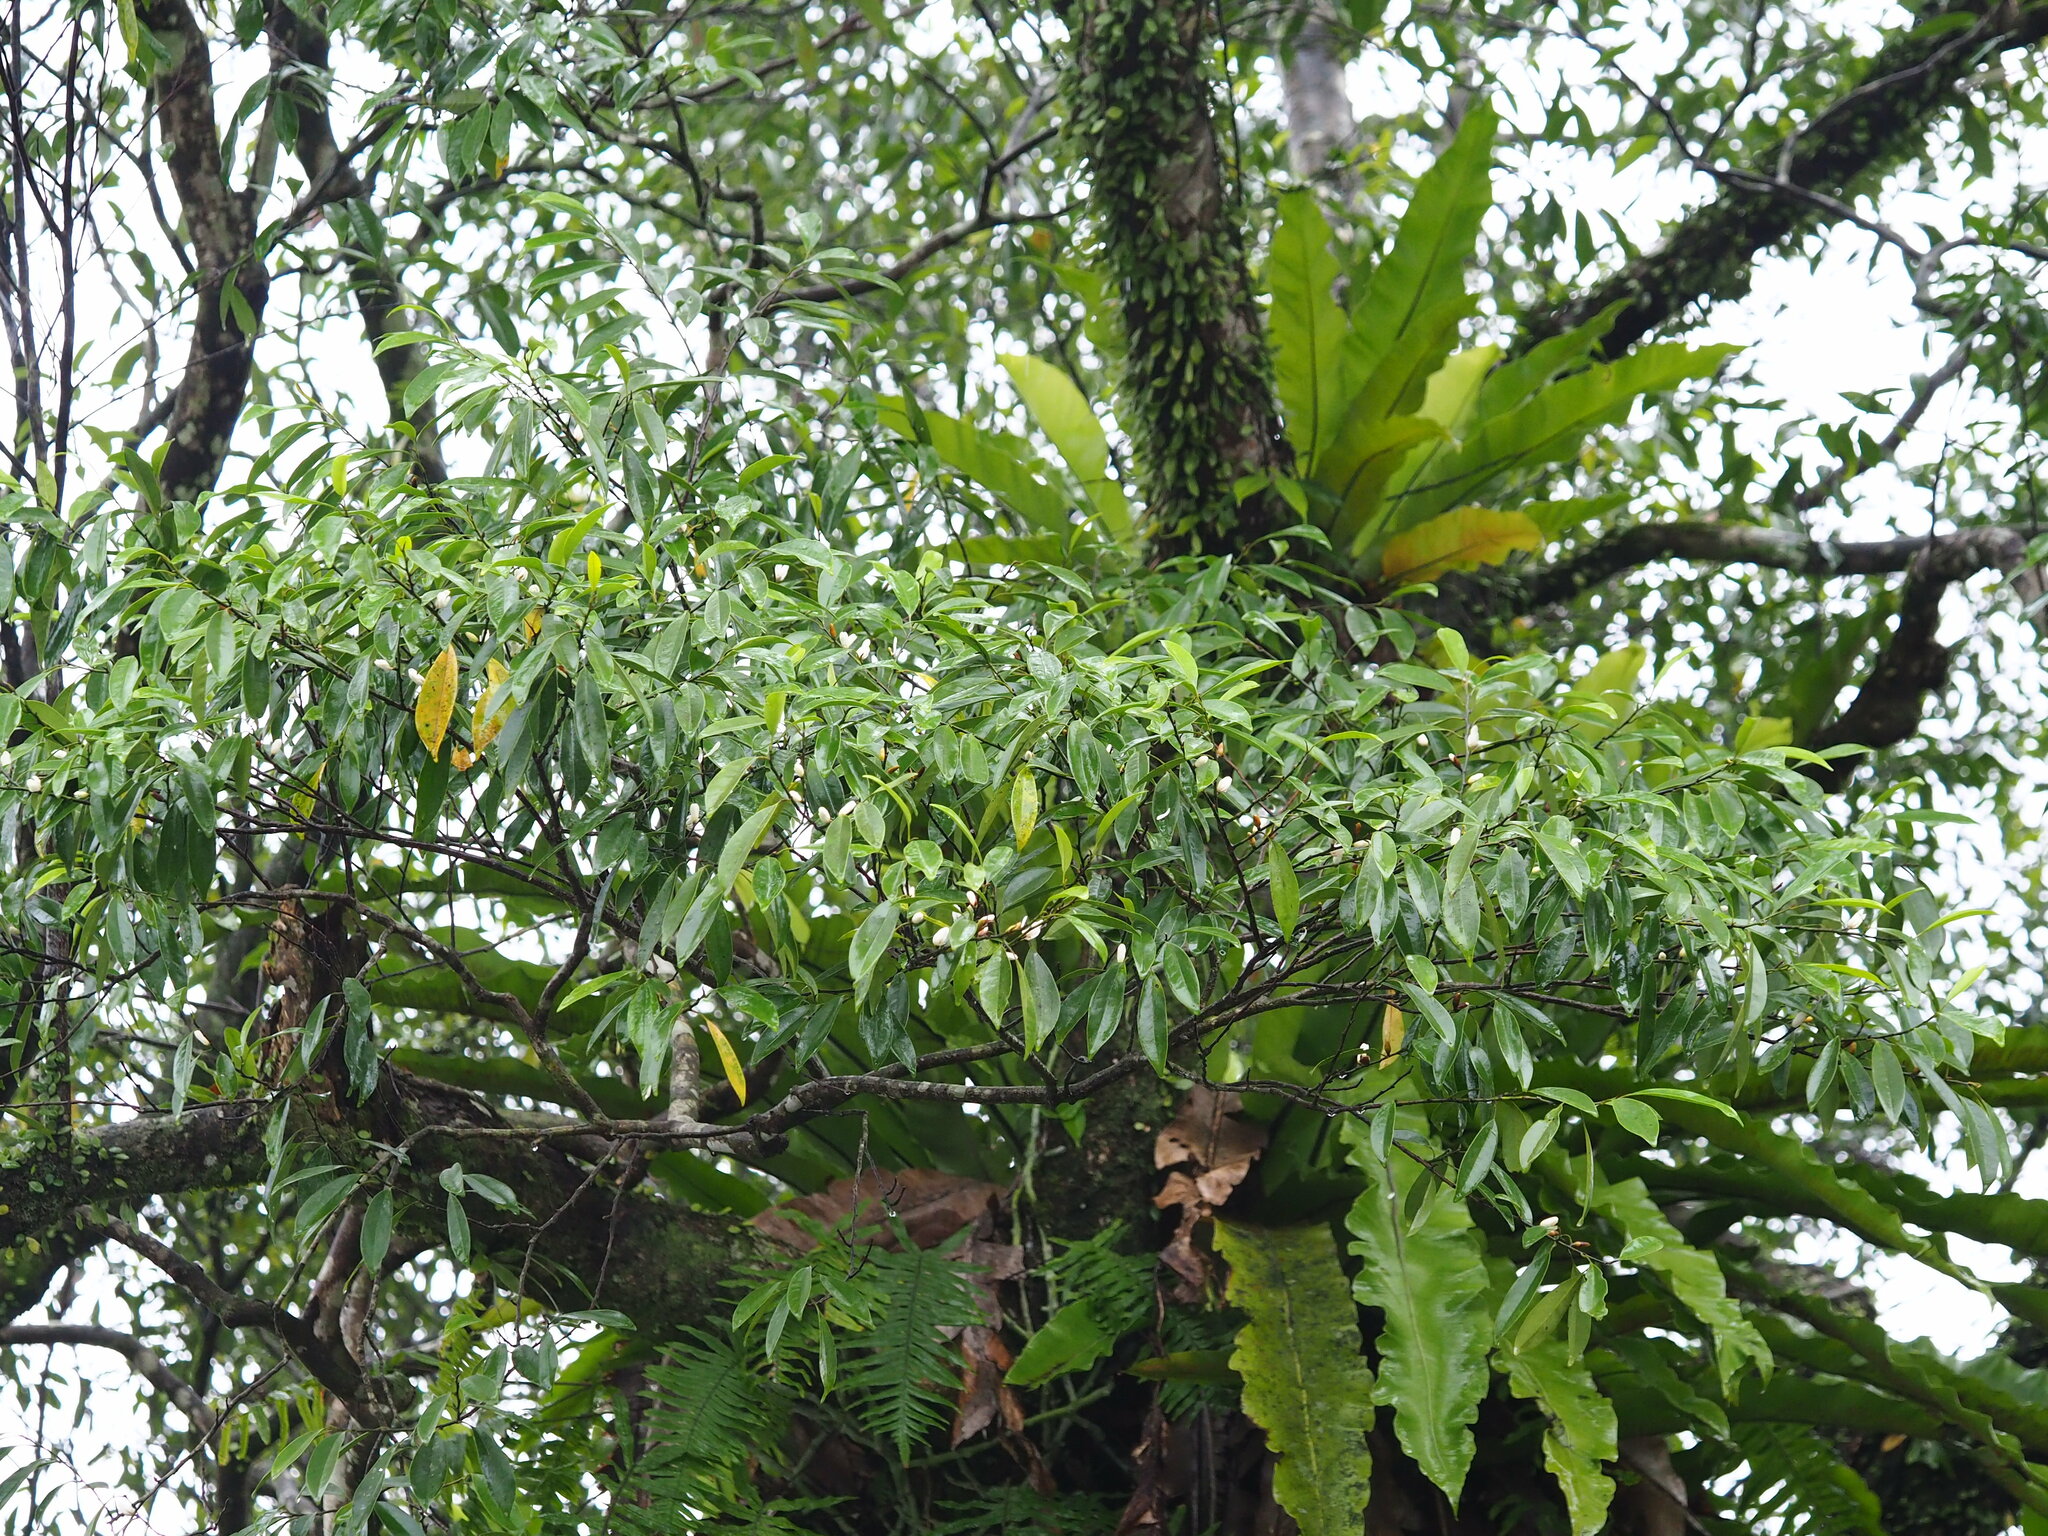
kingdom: Plantae
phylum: Tracheophyta
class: Magnoliopsida
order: Magnoliales
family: Magnoliaceae
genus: Magnolia
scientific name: Magnolia compressa
